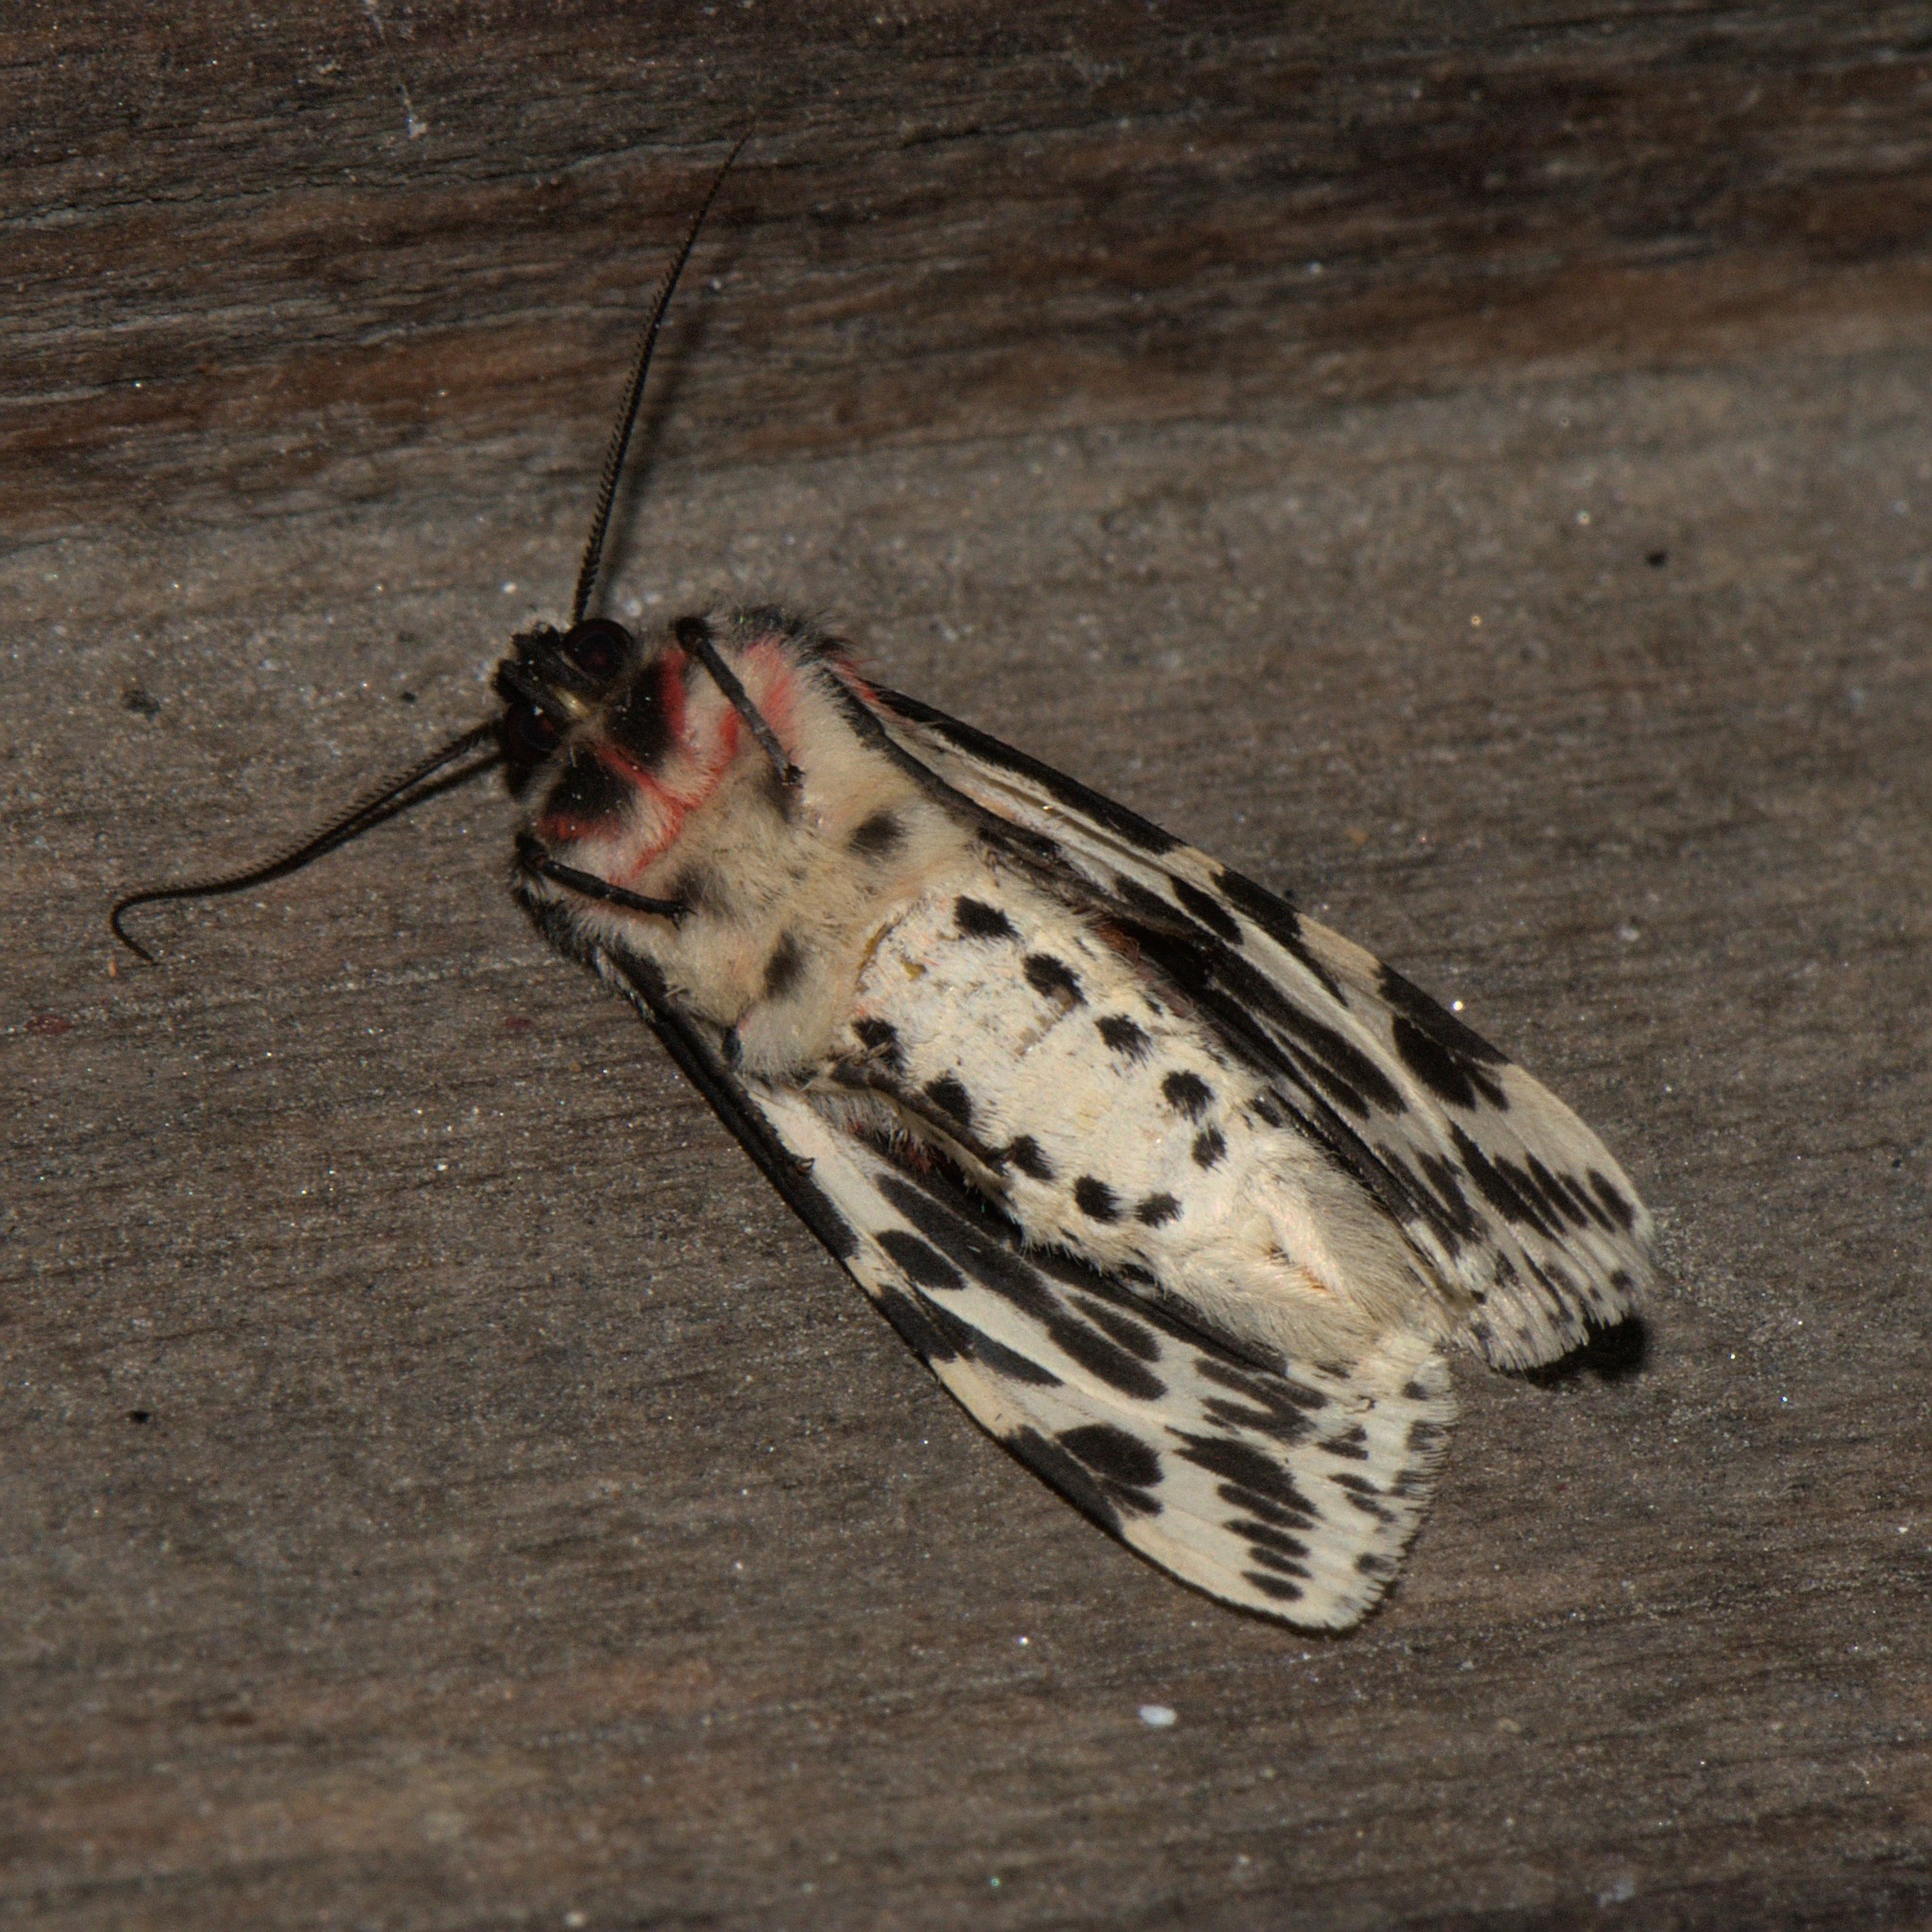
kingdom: Animalia
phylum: Arthropoda
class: Insecta
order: Lepidoptera
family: Erebidae
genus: Spilarctia
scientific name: Spilarctia leopardina
